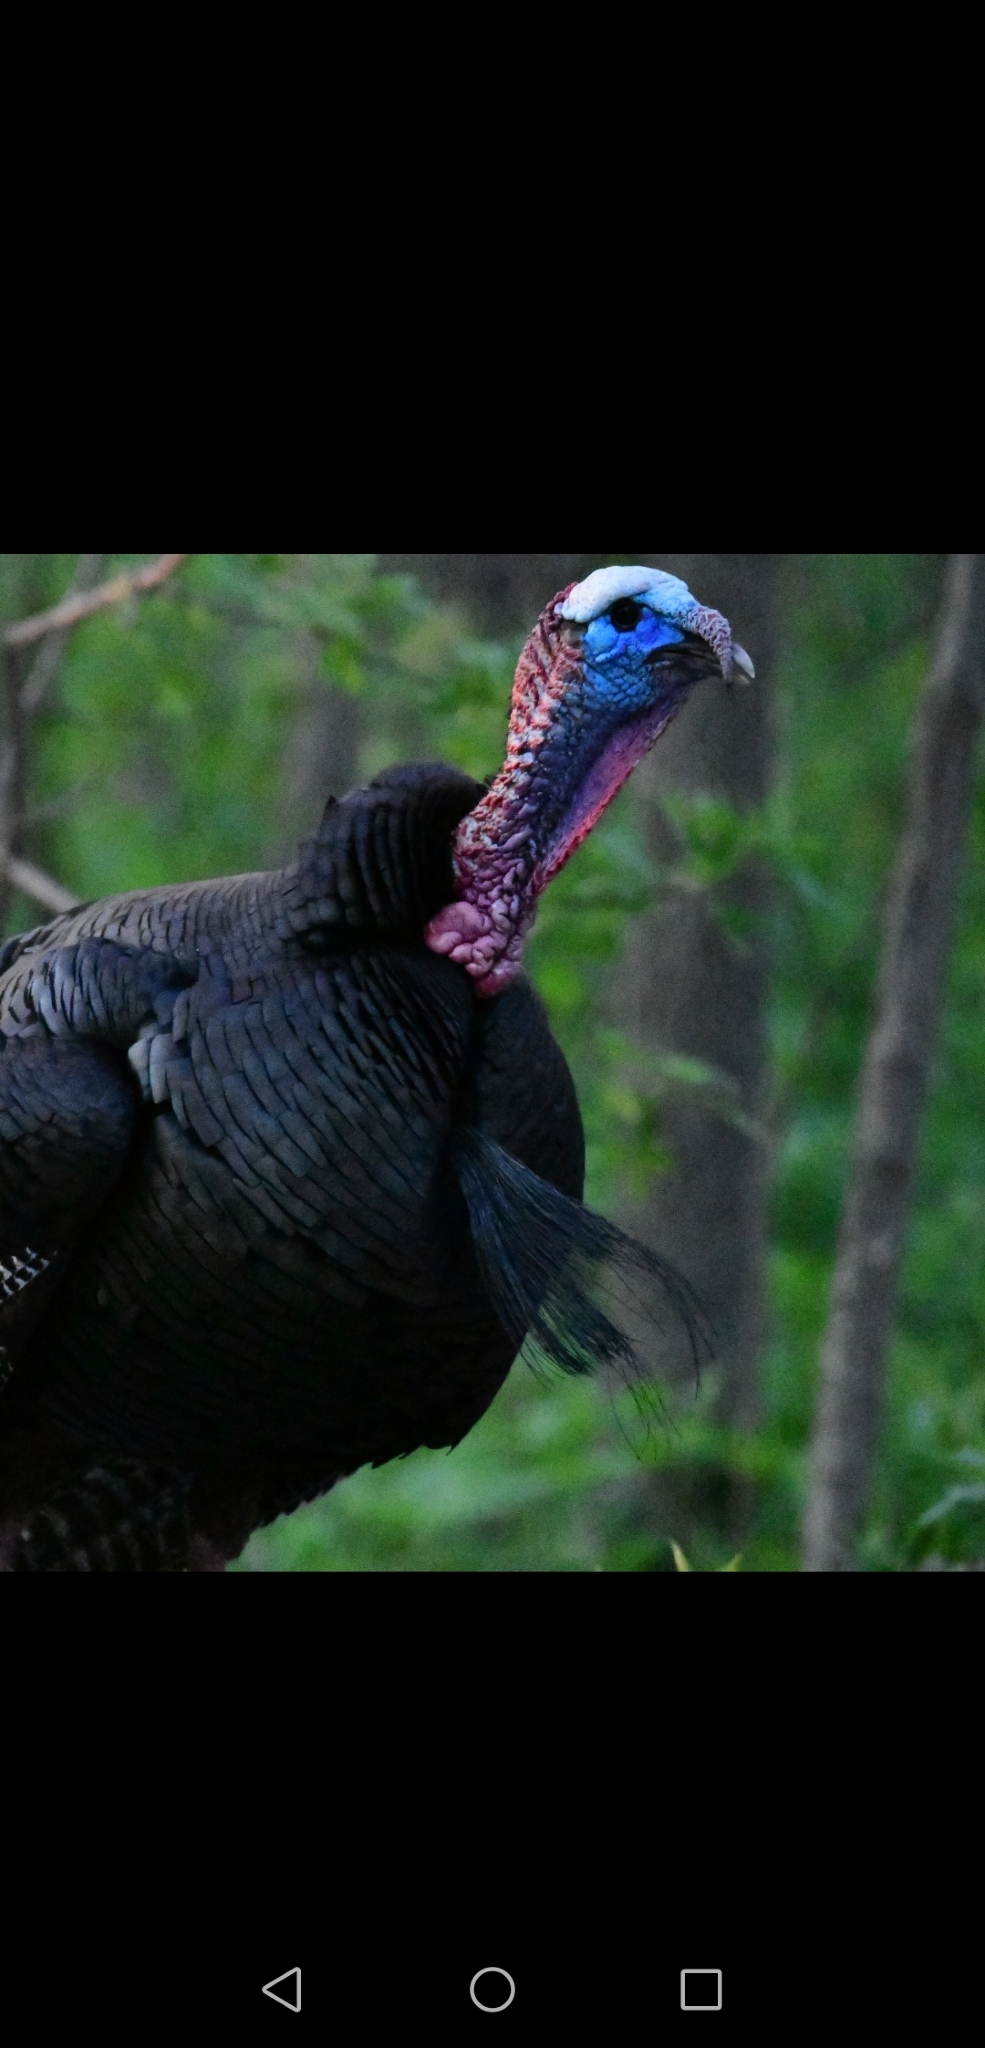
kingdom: Animalia
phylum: Chordata
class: Aves
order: Galliformes
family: Phasianidae
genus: Meleagris
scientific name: Meleagris gallopavo
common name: Wild turkey
